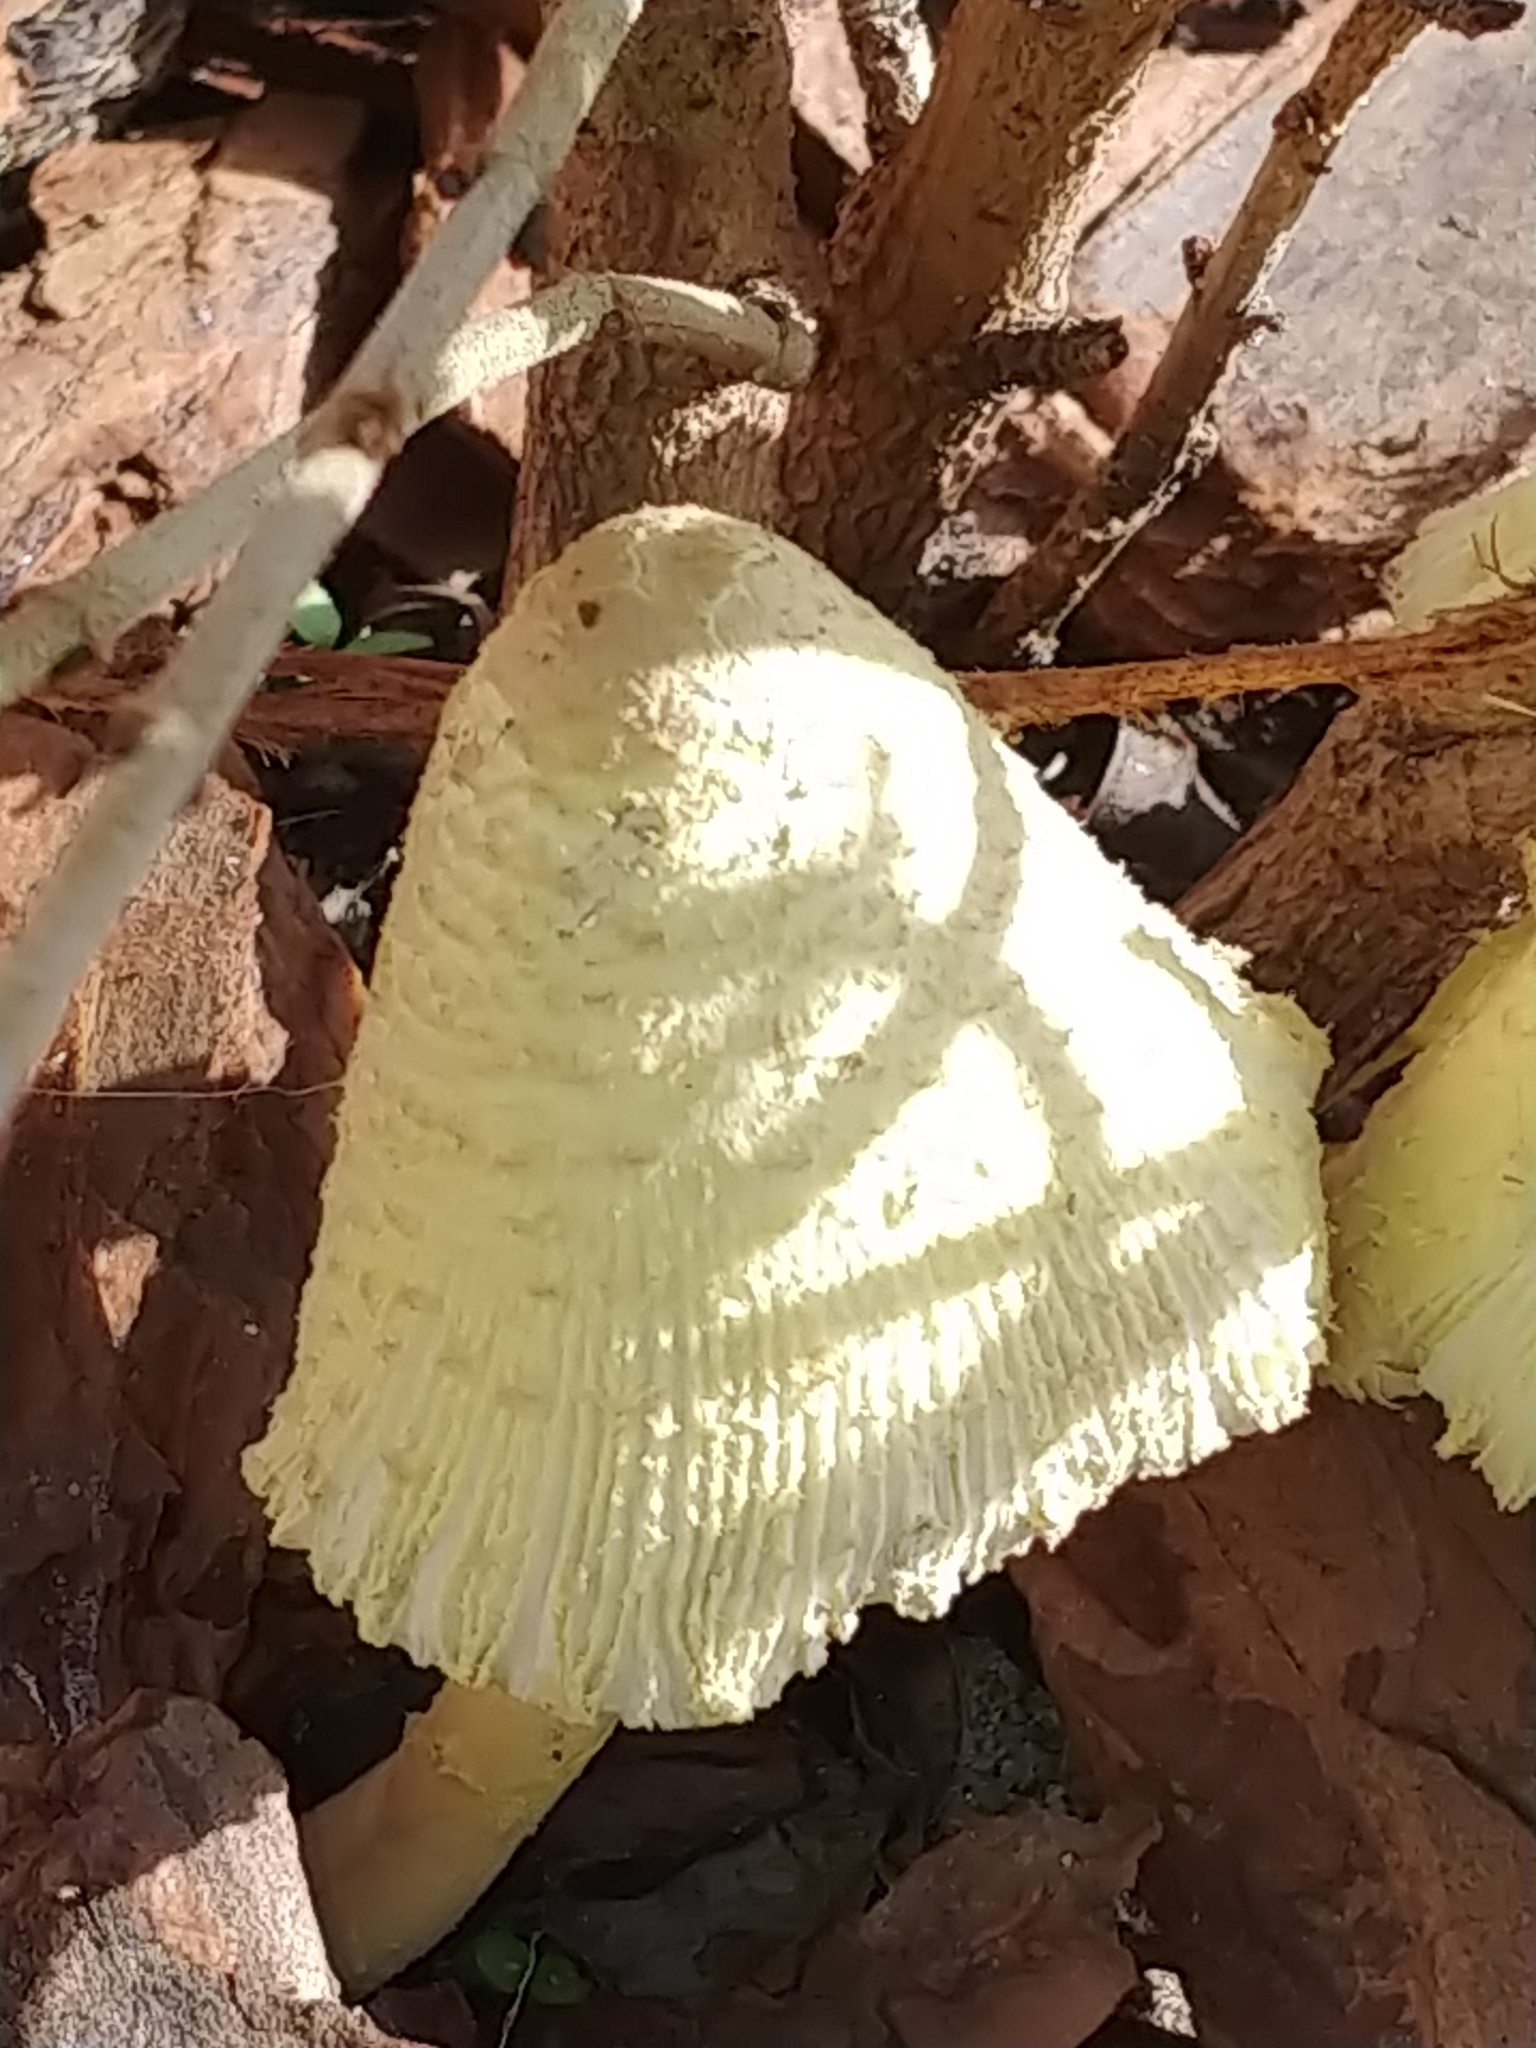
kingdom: Fungi
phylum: Basidiomycota
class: Agaricomycetes
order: Agaricales
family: Agaricaceae
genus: Leucocoprinus
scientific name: Leucocoprinus birnbaumii
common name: Plantpot dapperling
